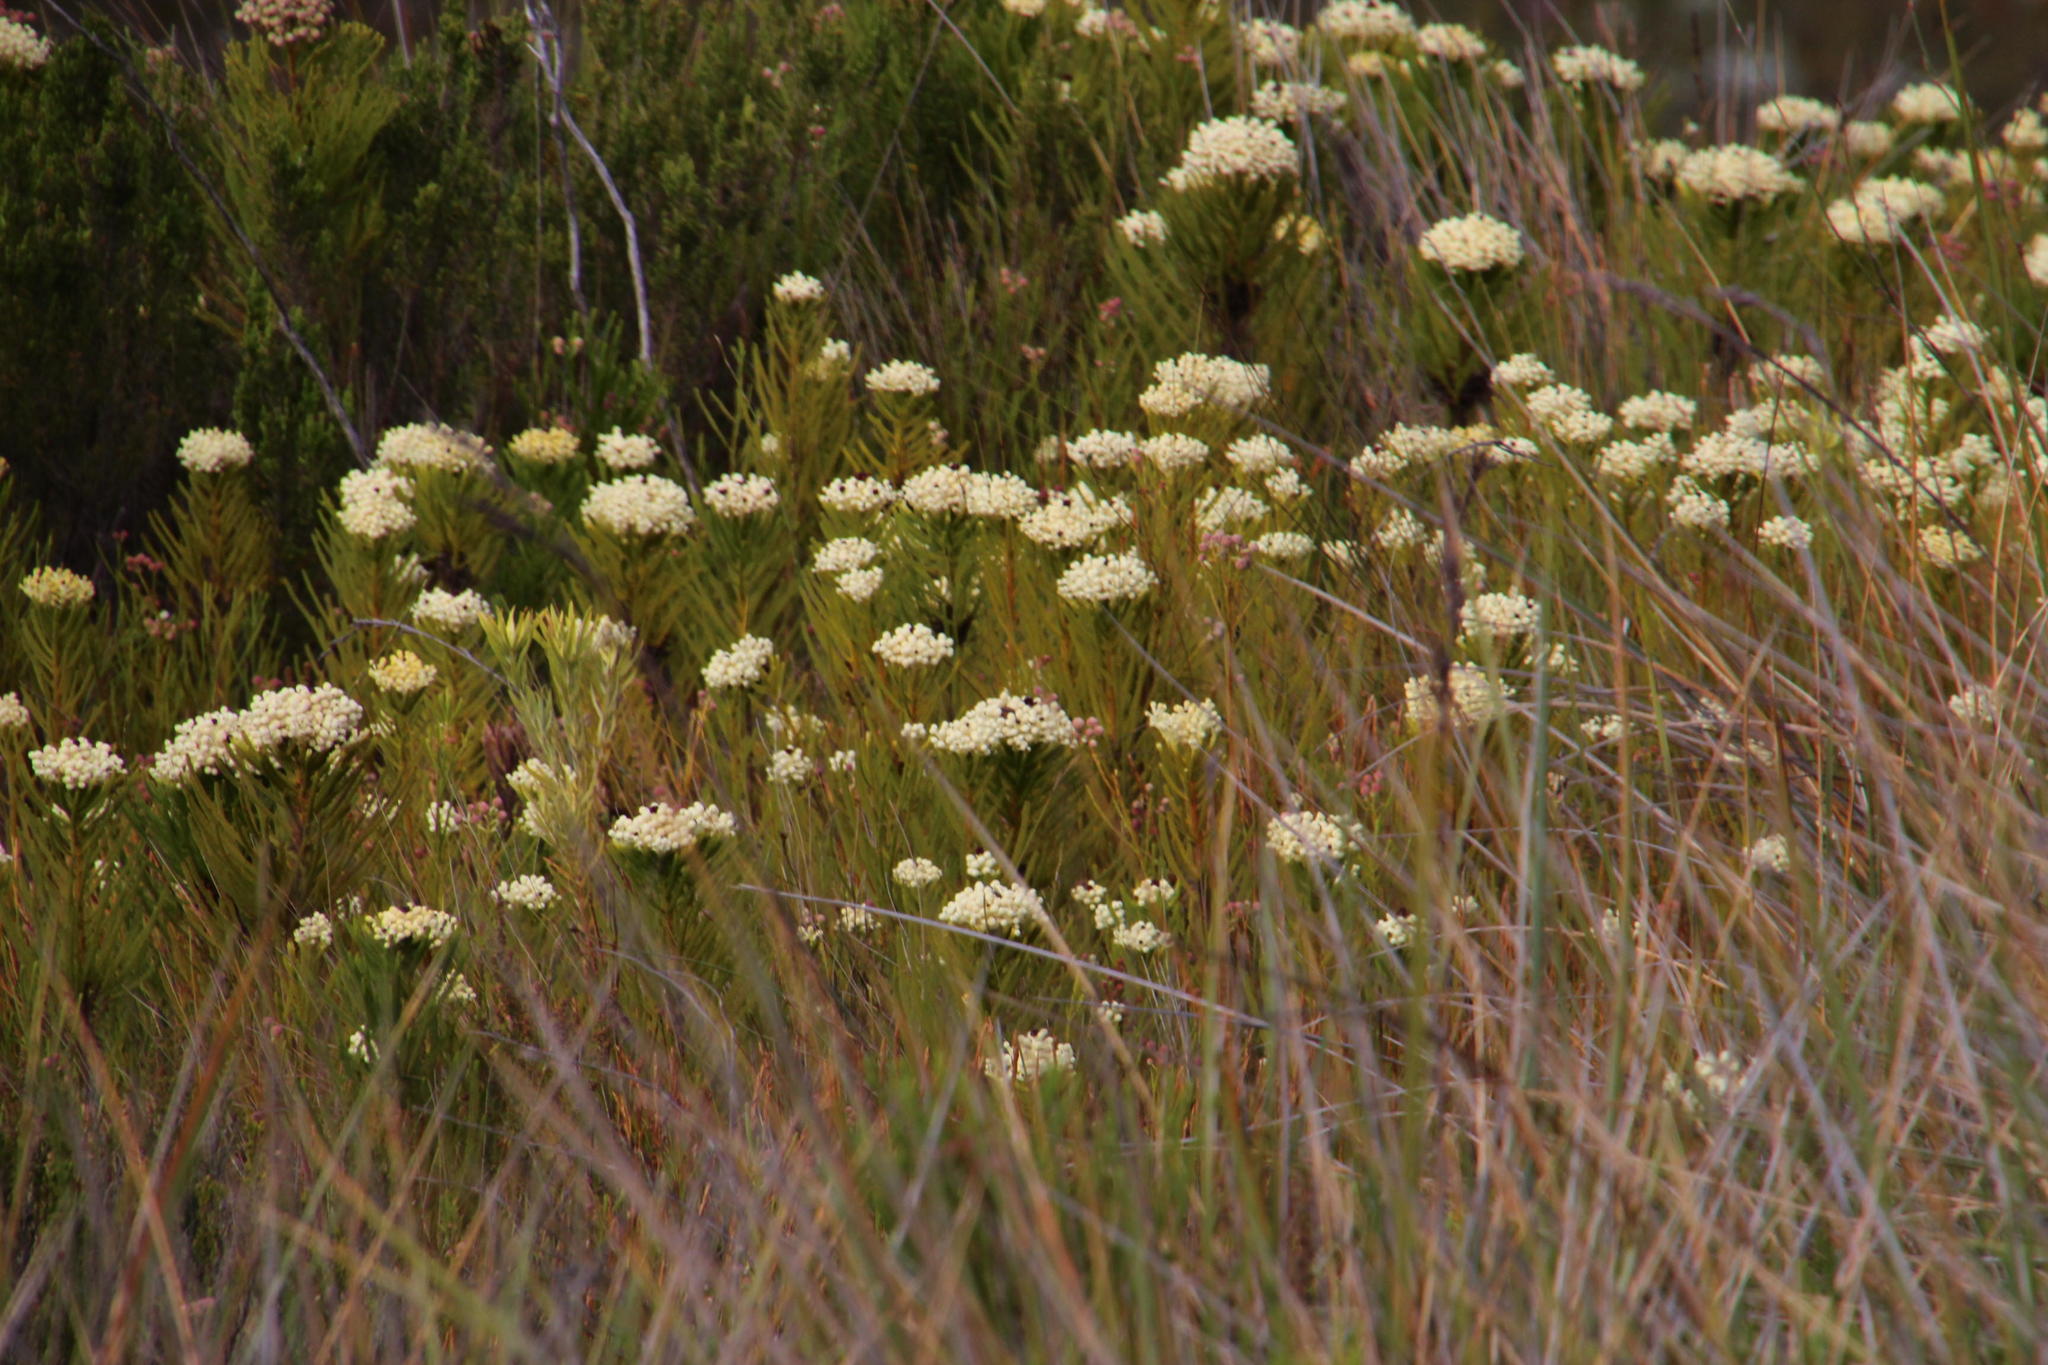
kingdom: Plantae
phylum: Tracheophyta
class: Magnoliopsida
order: Bruniales
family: Bruniaceae
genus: Berzelia
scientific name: Berzelia abrotanoides
